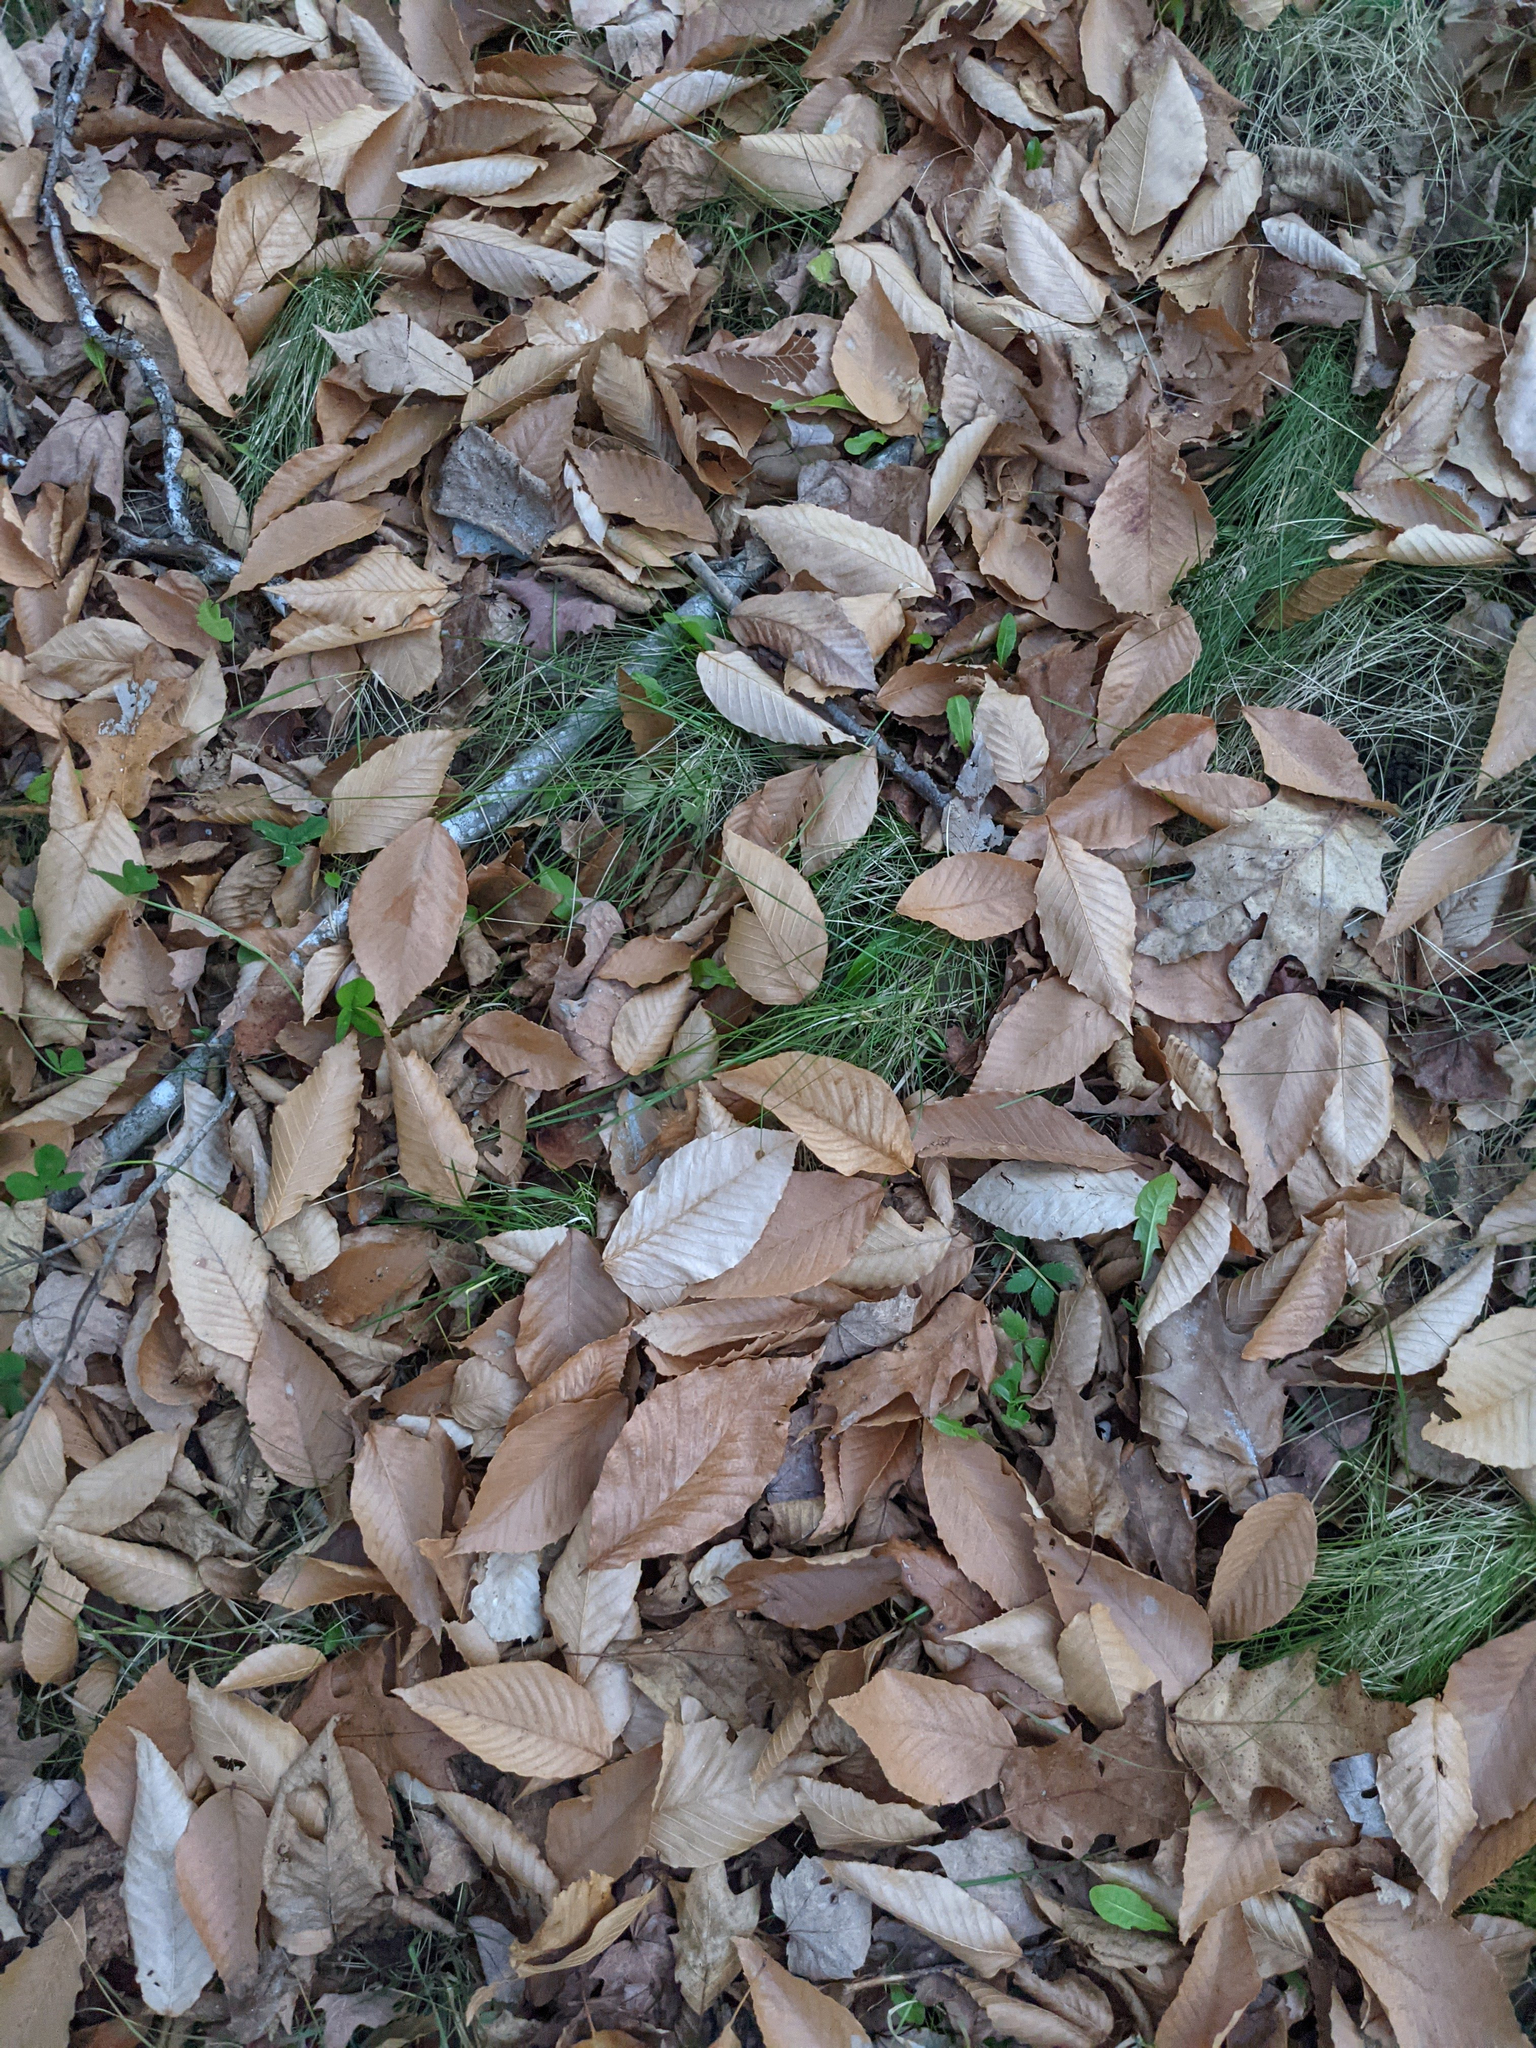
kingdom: Plantae
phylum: Tracheophyta
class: Magnoliopsida
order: Fagales
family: Fagaceae
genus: Fagus
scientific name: Fagus grandifolia
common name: American beech
